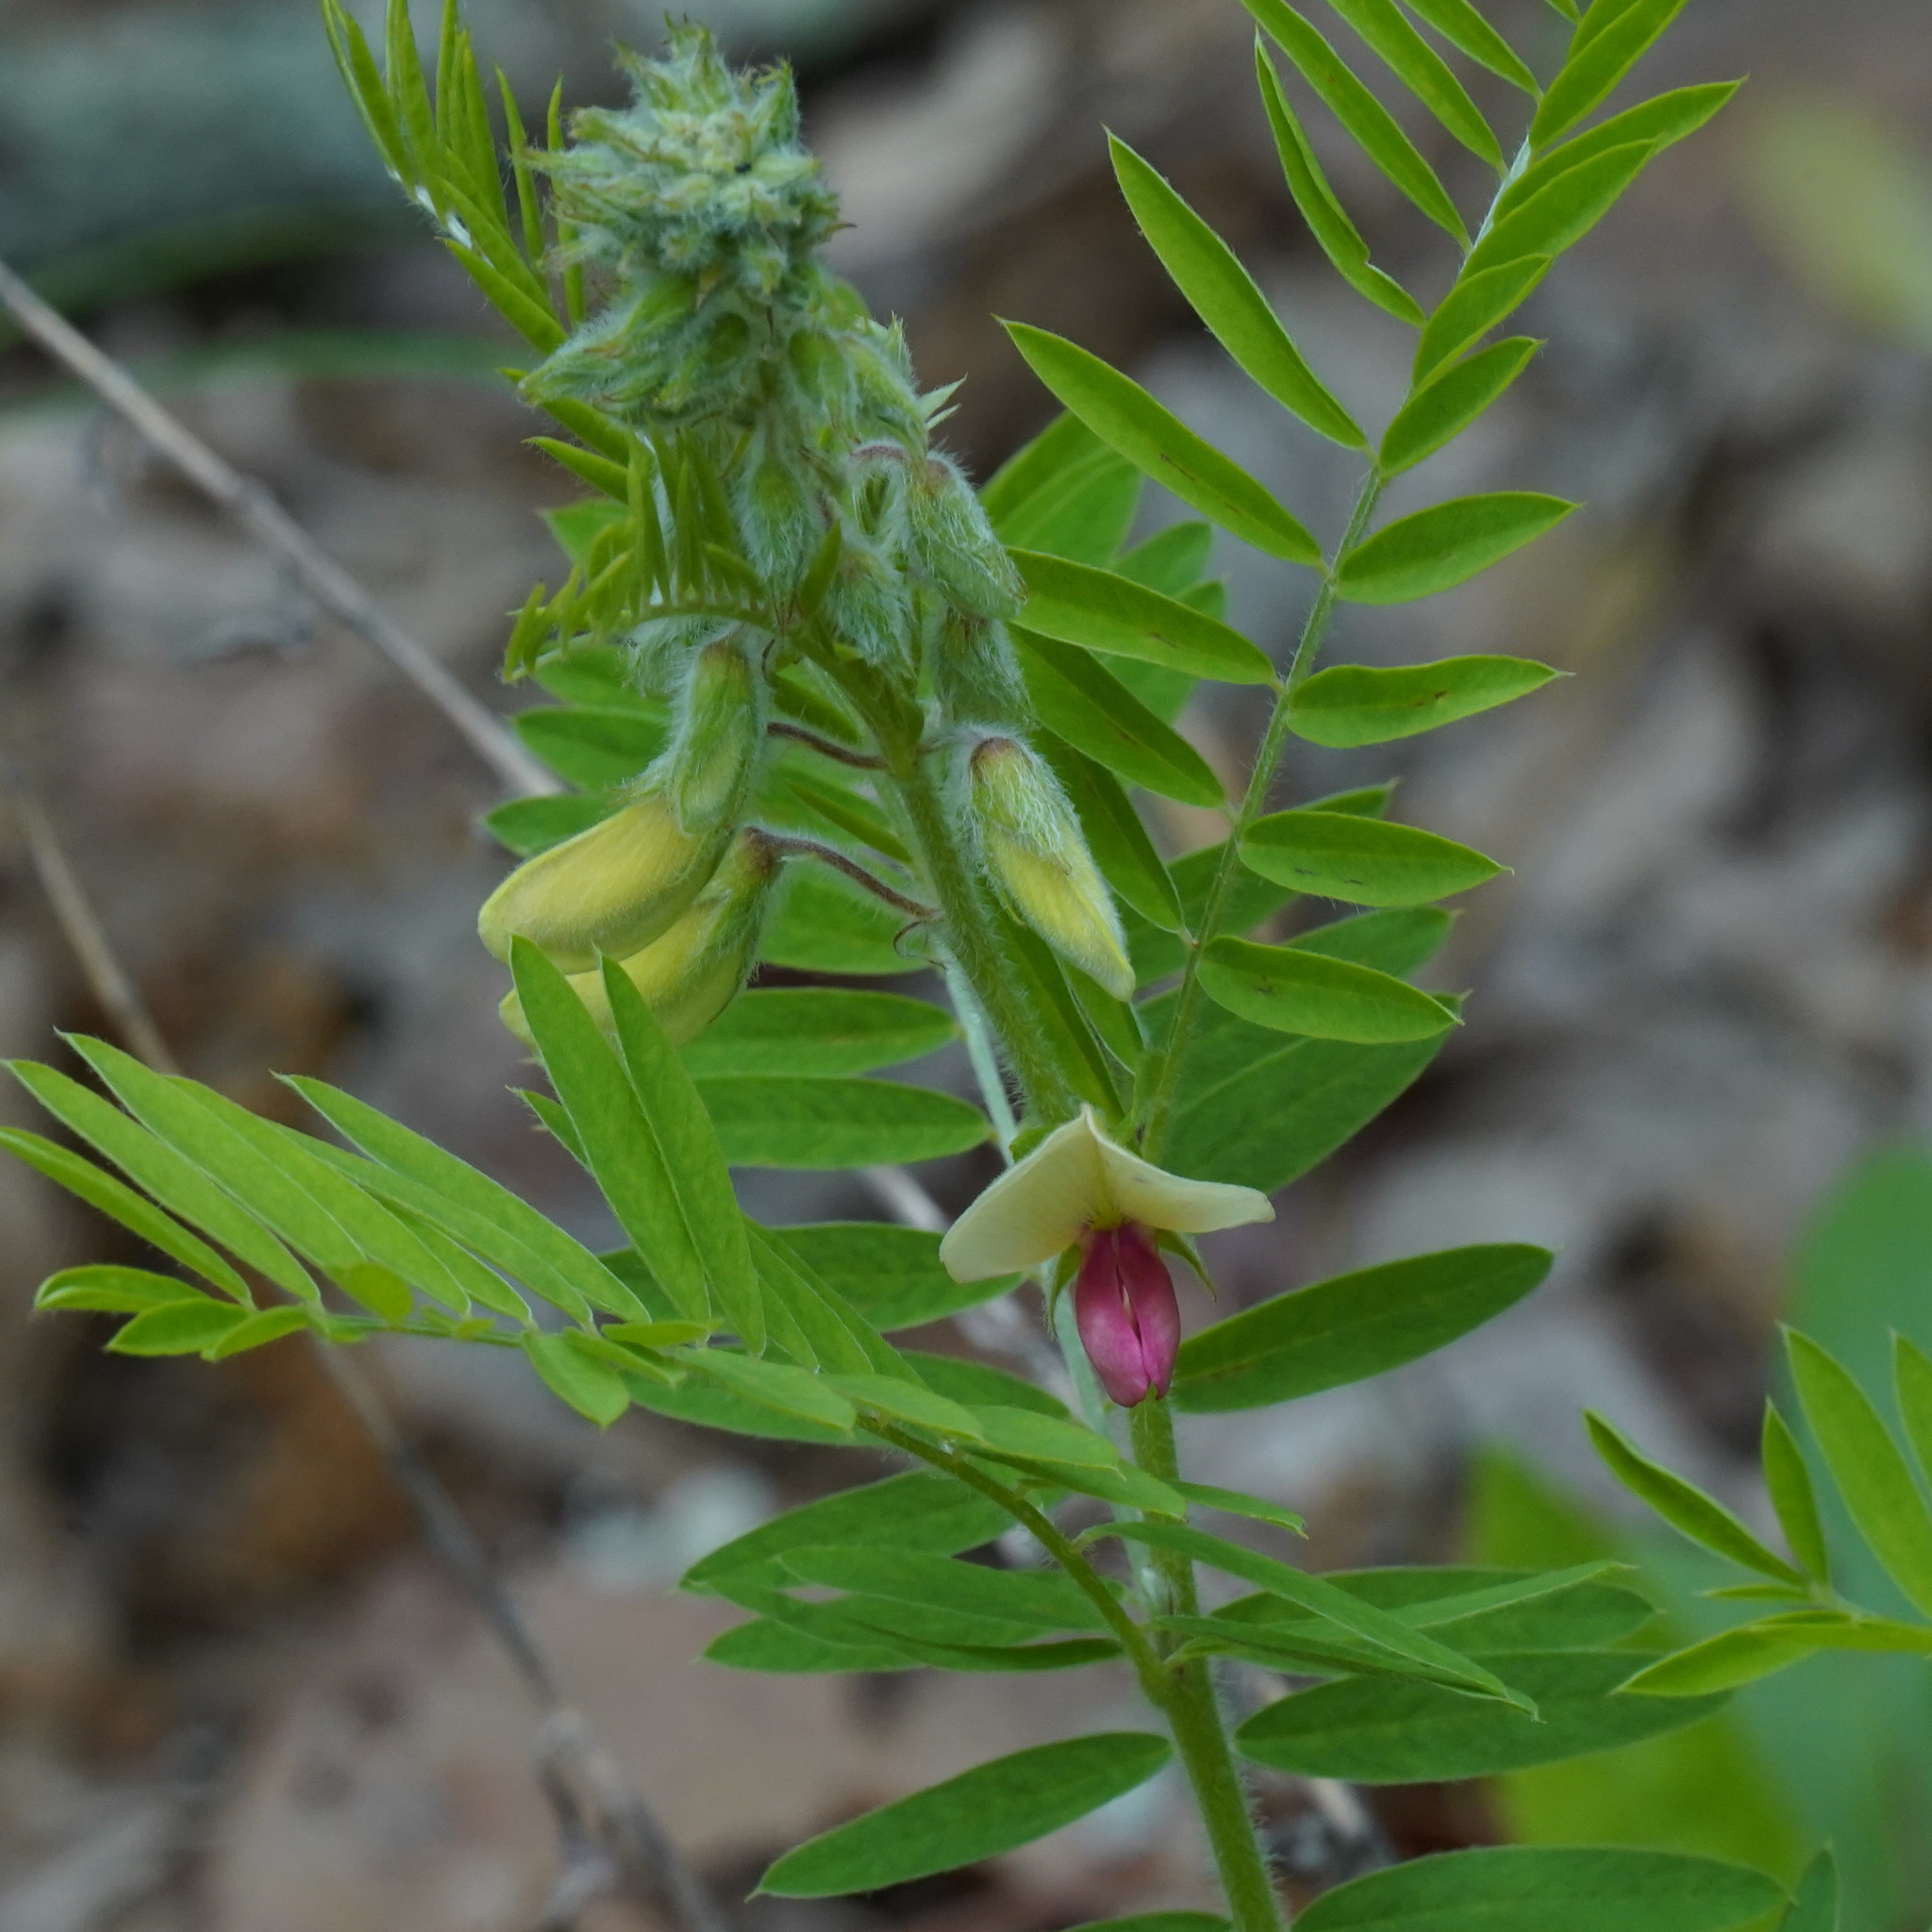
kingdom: Plantae
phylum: Tracheophyta
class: Magnoliopsida
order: Fabales
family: Fabaceae
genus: Tephrosia
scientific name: Tephrosia virginiana
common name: Rabbit-pea
